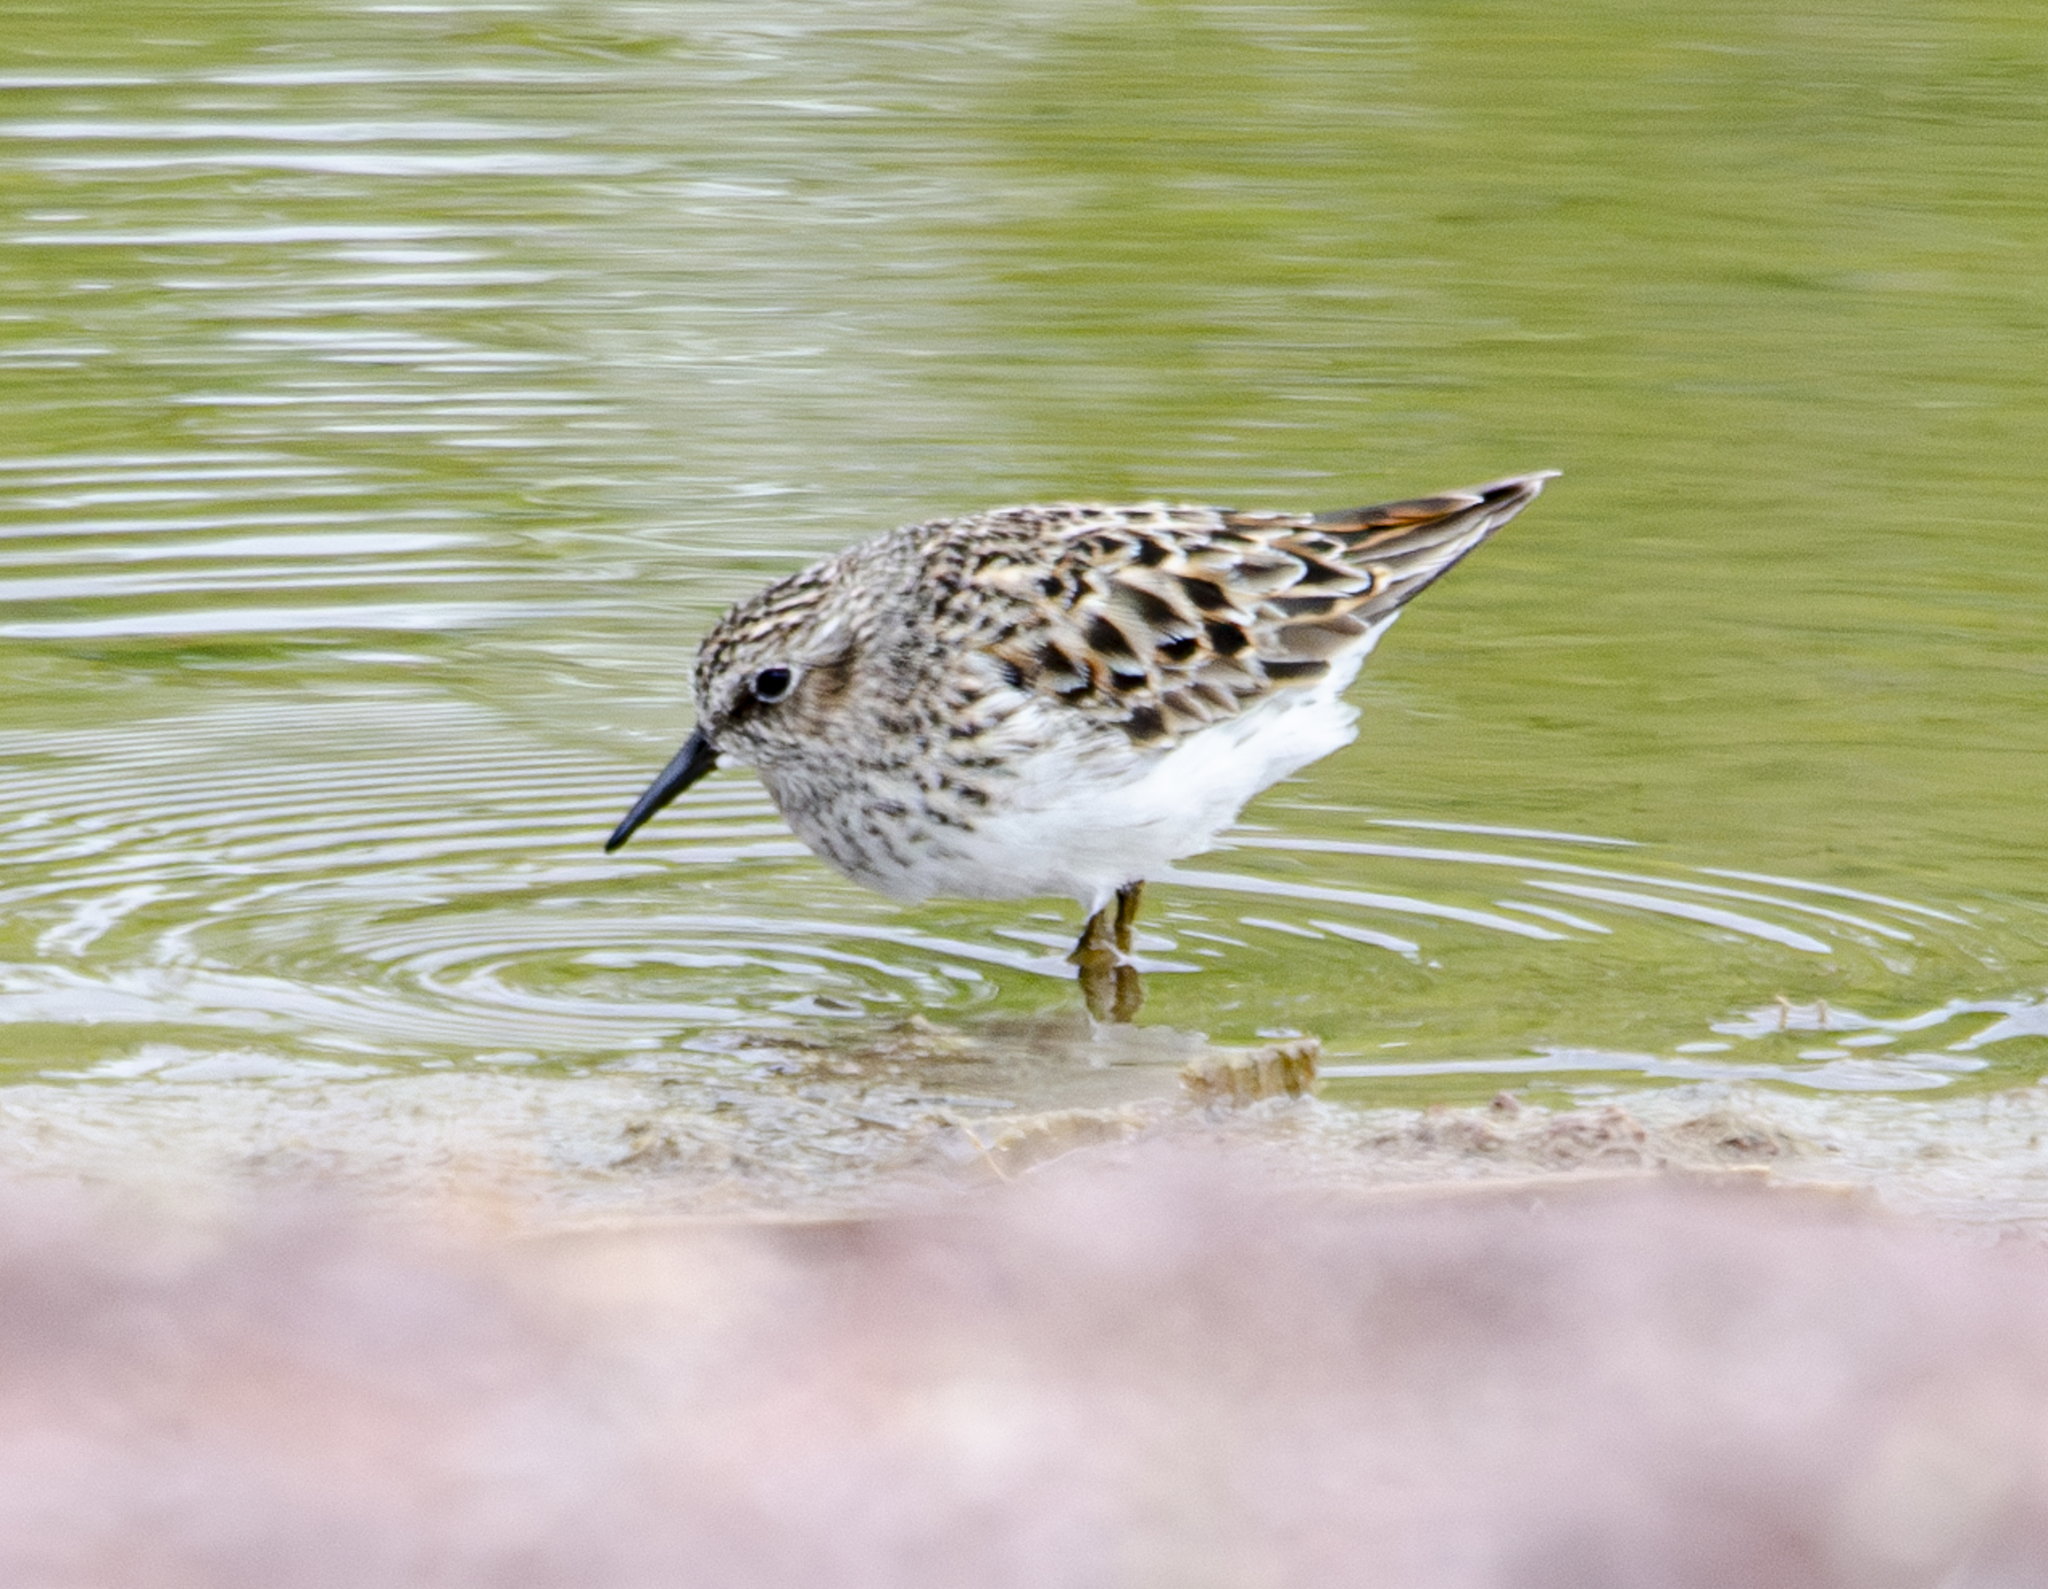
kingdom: Animalia
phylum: Chordata
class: Aves
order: Charadriiformes
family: Scolopacidae
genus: Calidris
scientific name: Calidris minutilla
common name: Least sandpiper
